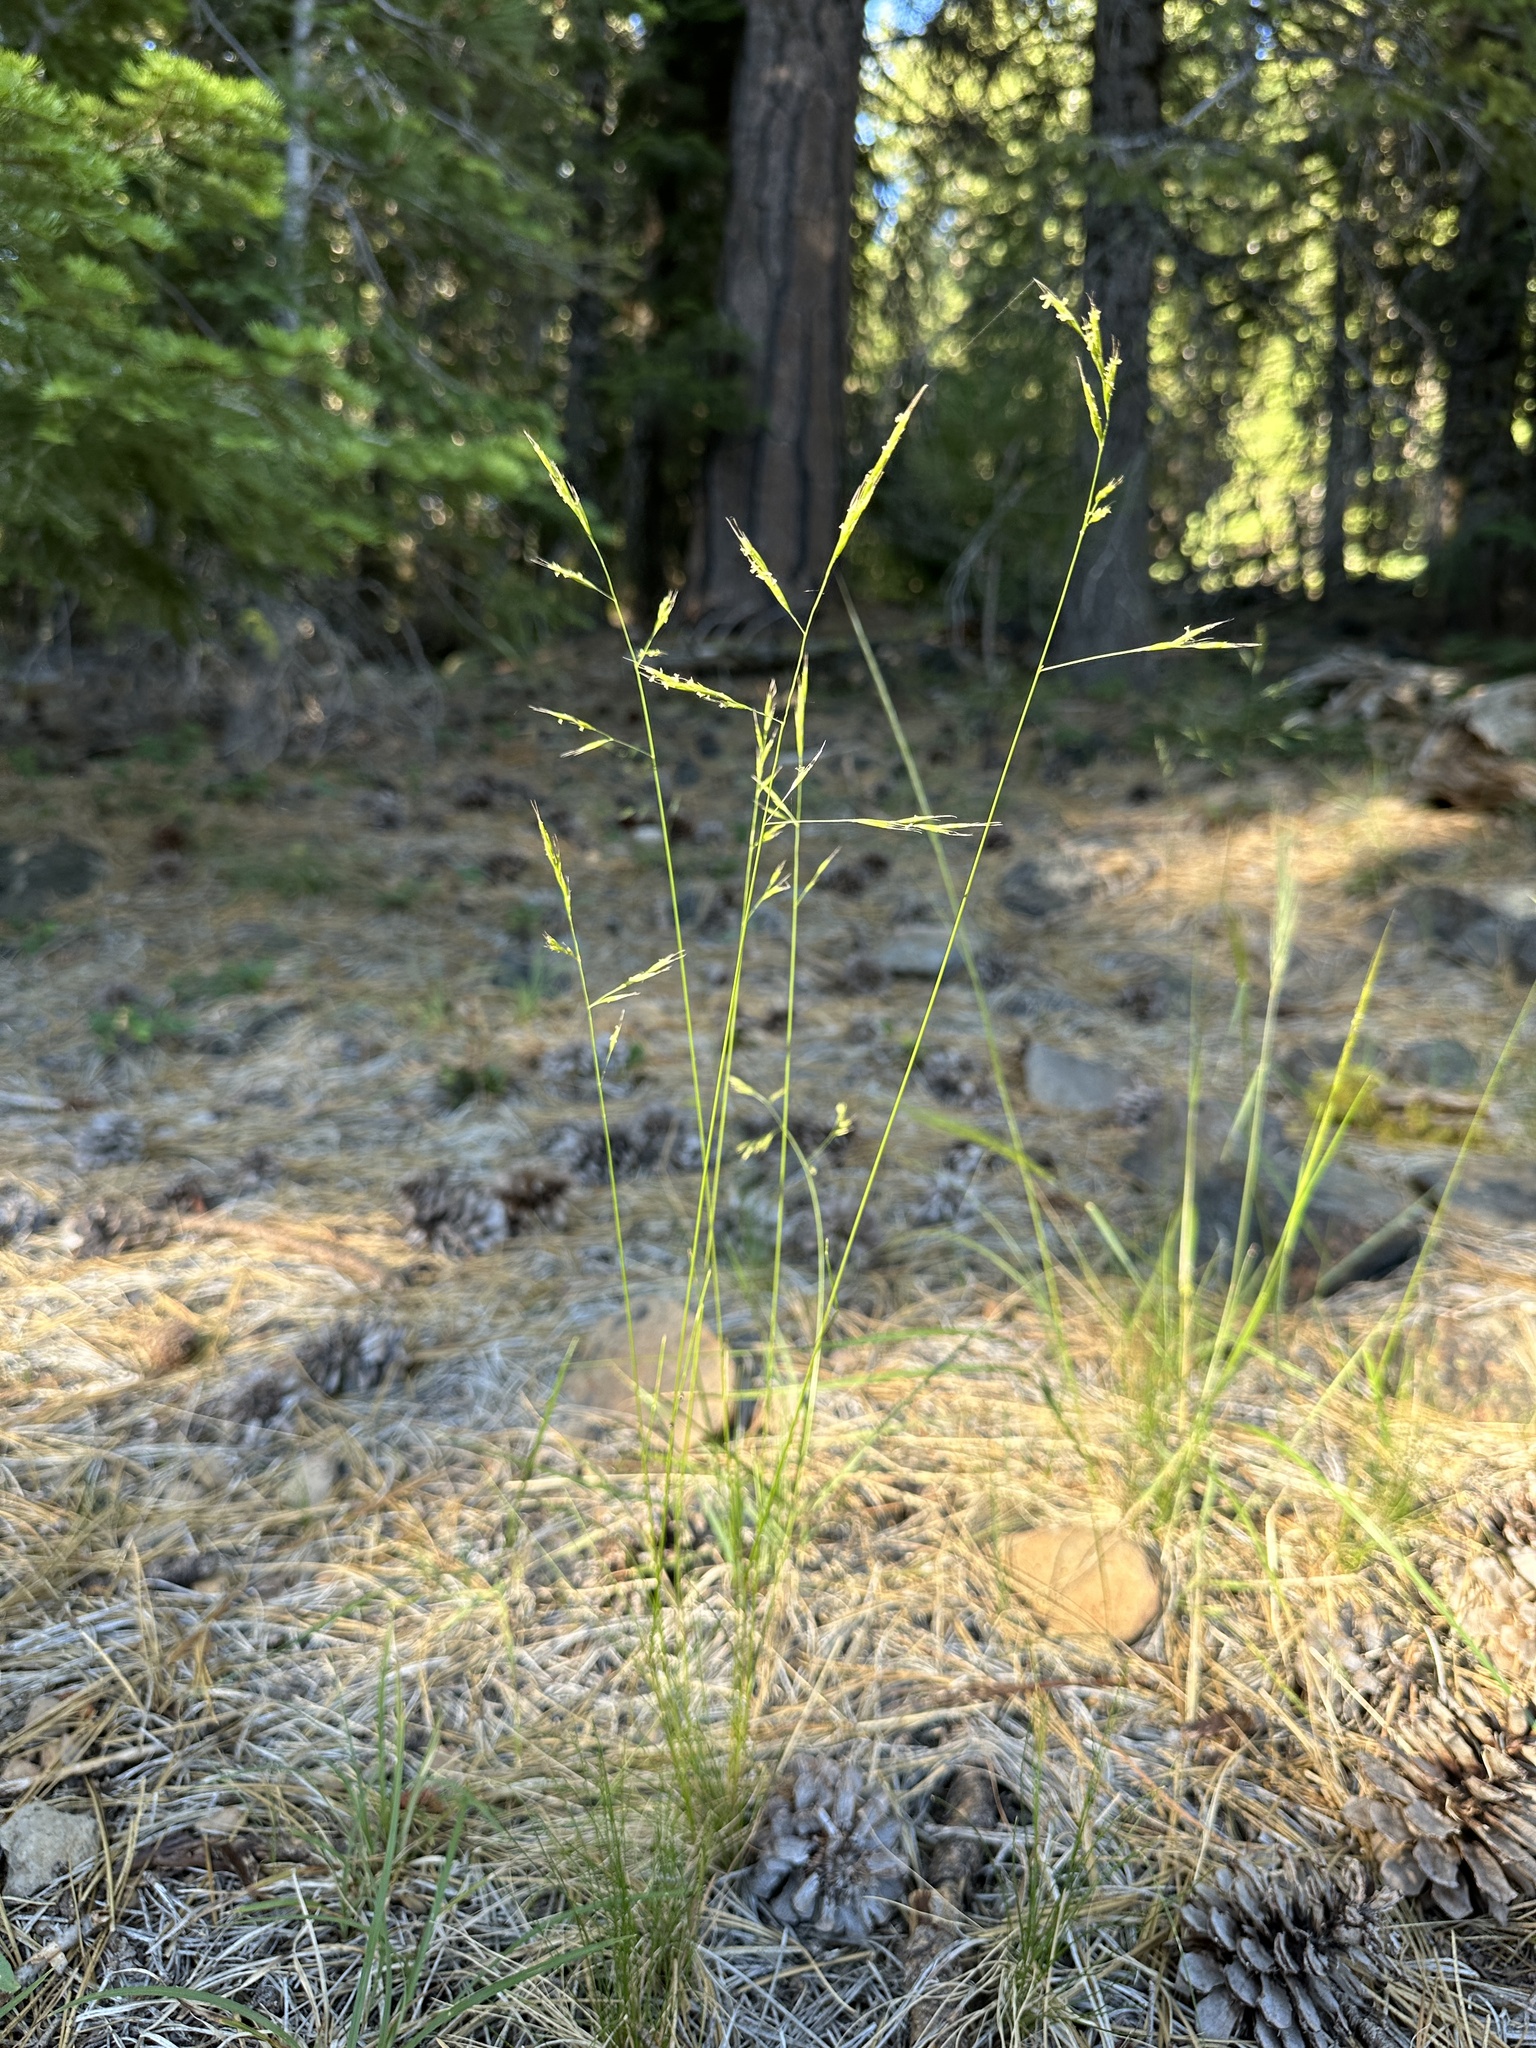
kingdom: Plantae
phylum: Tracheophyta
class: Liliopsida
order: Poales
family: Poaceae
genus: Festuca
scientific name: Festuca occidentalis
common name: Western fescue
